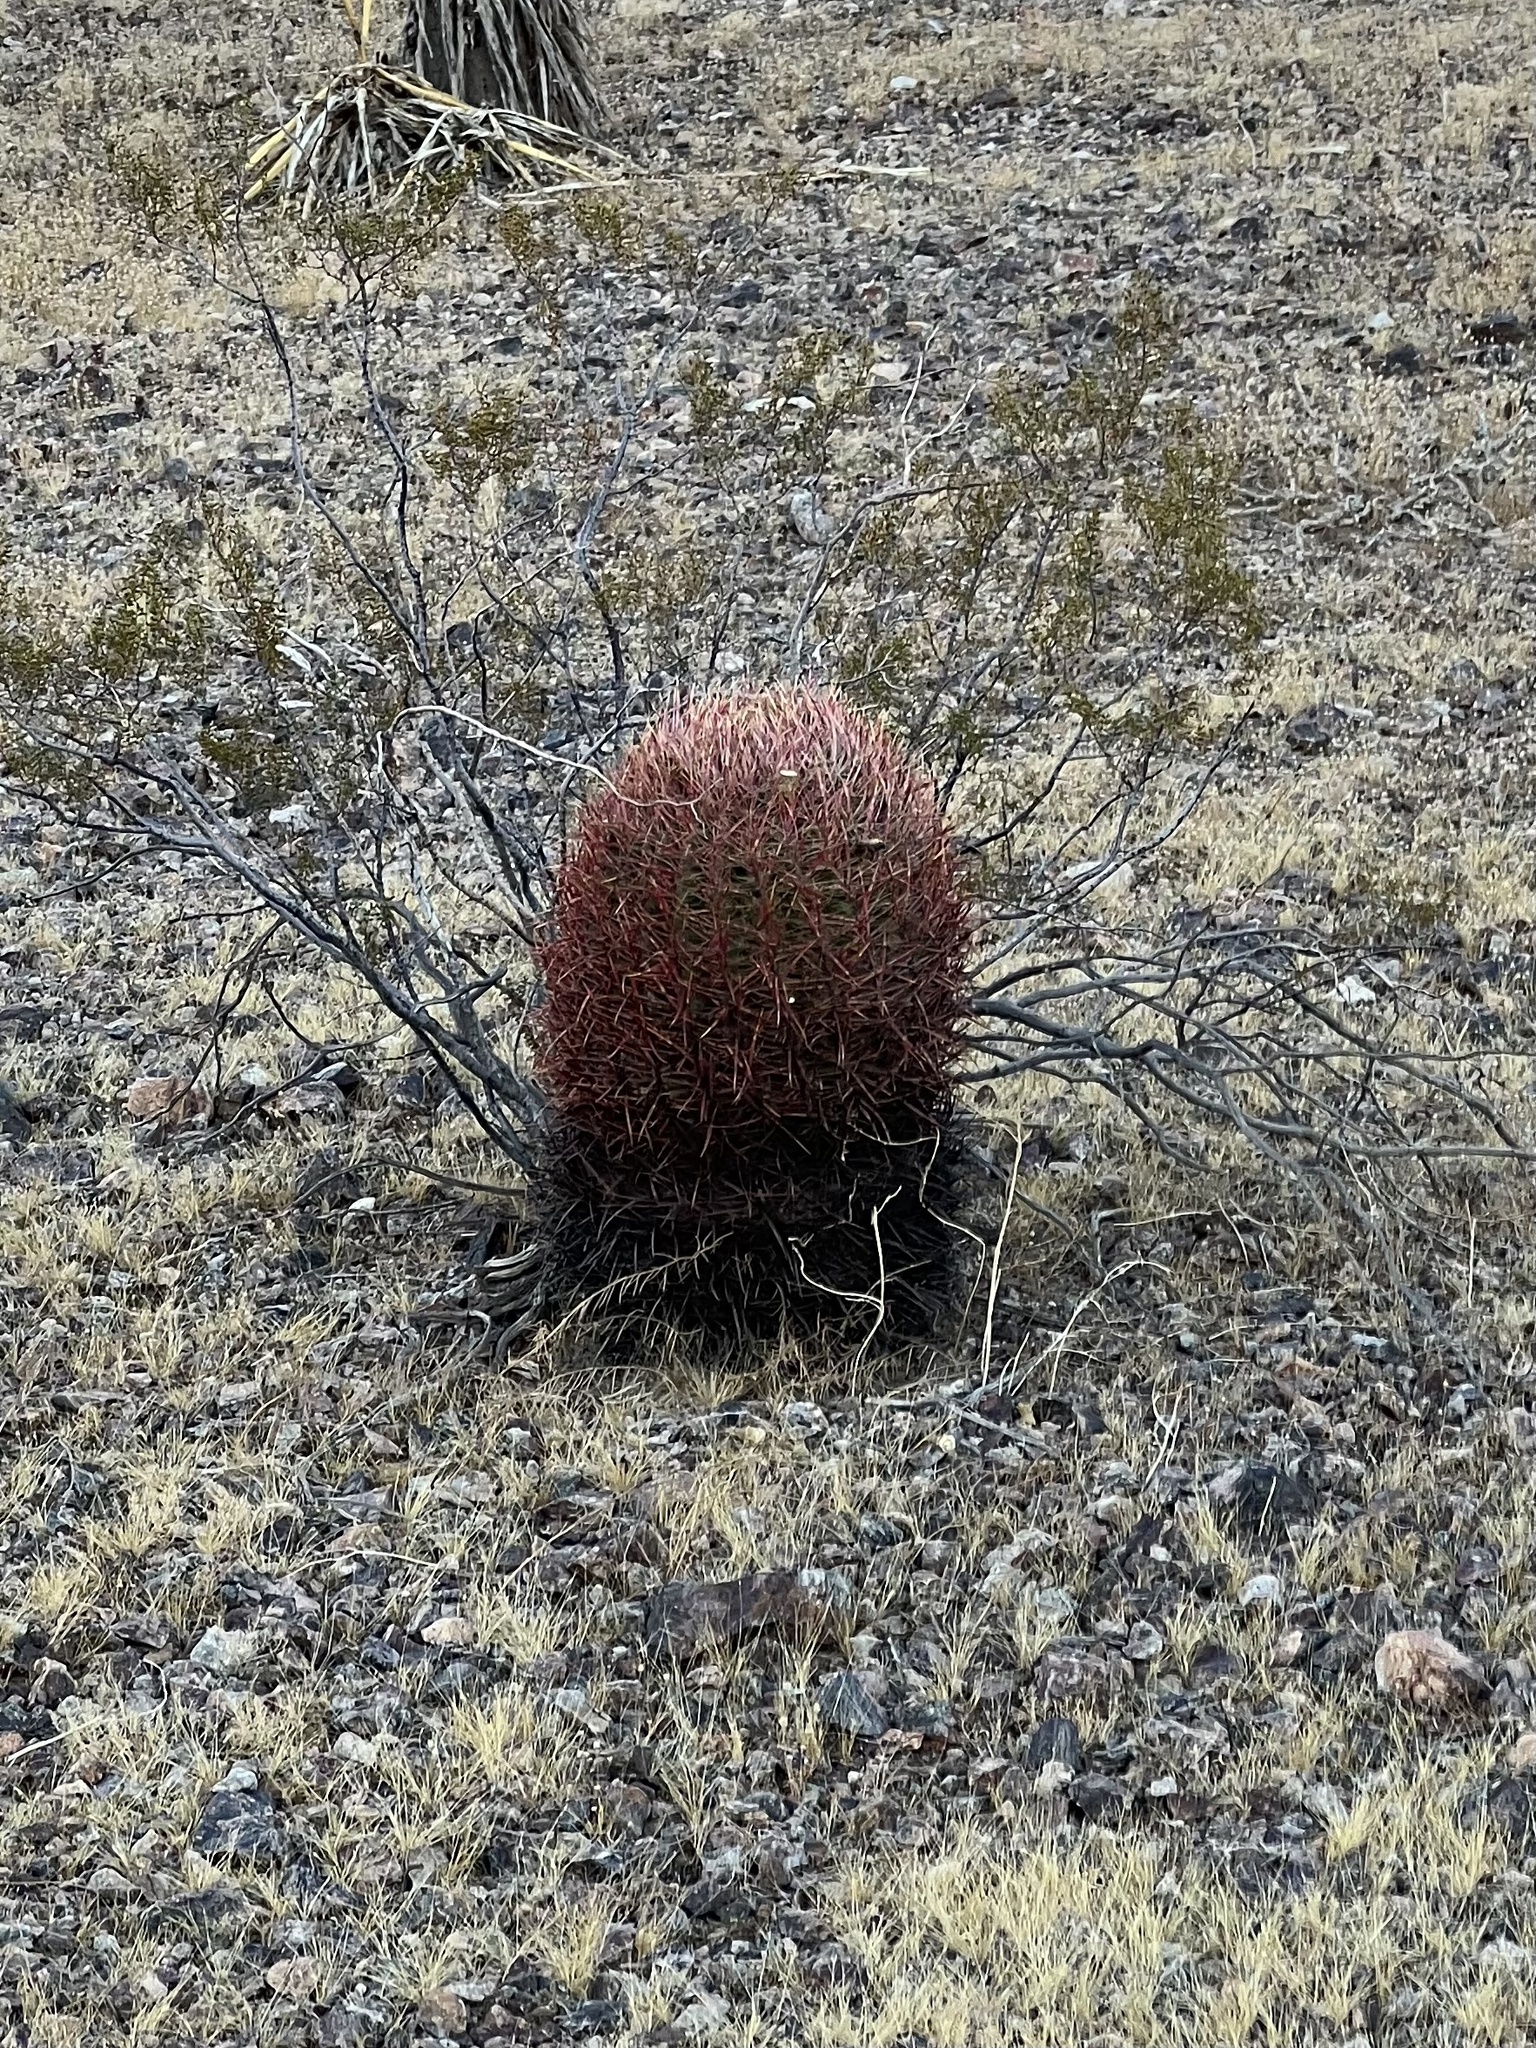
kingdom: Plantae
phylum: Tracheophyta
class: Magnoliopsida
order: Caryophyllales
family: Cactaceae
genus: Ferocactus
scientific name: Ferocactus cylindraceus
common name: California barrel cactus
